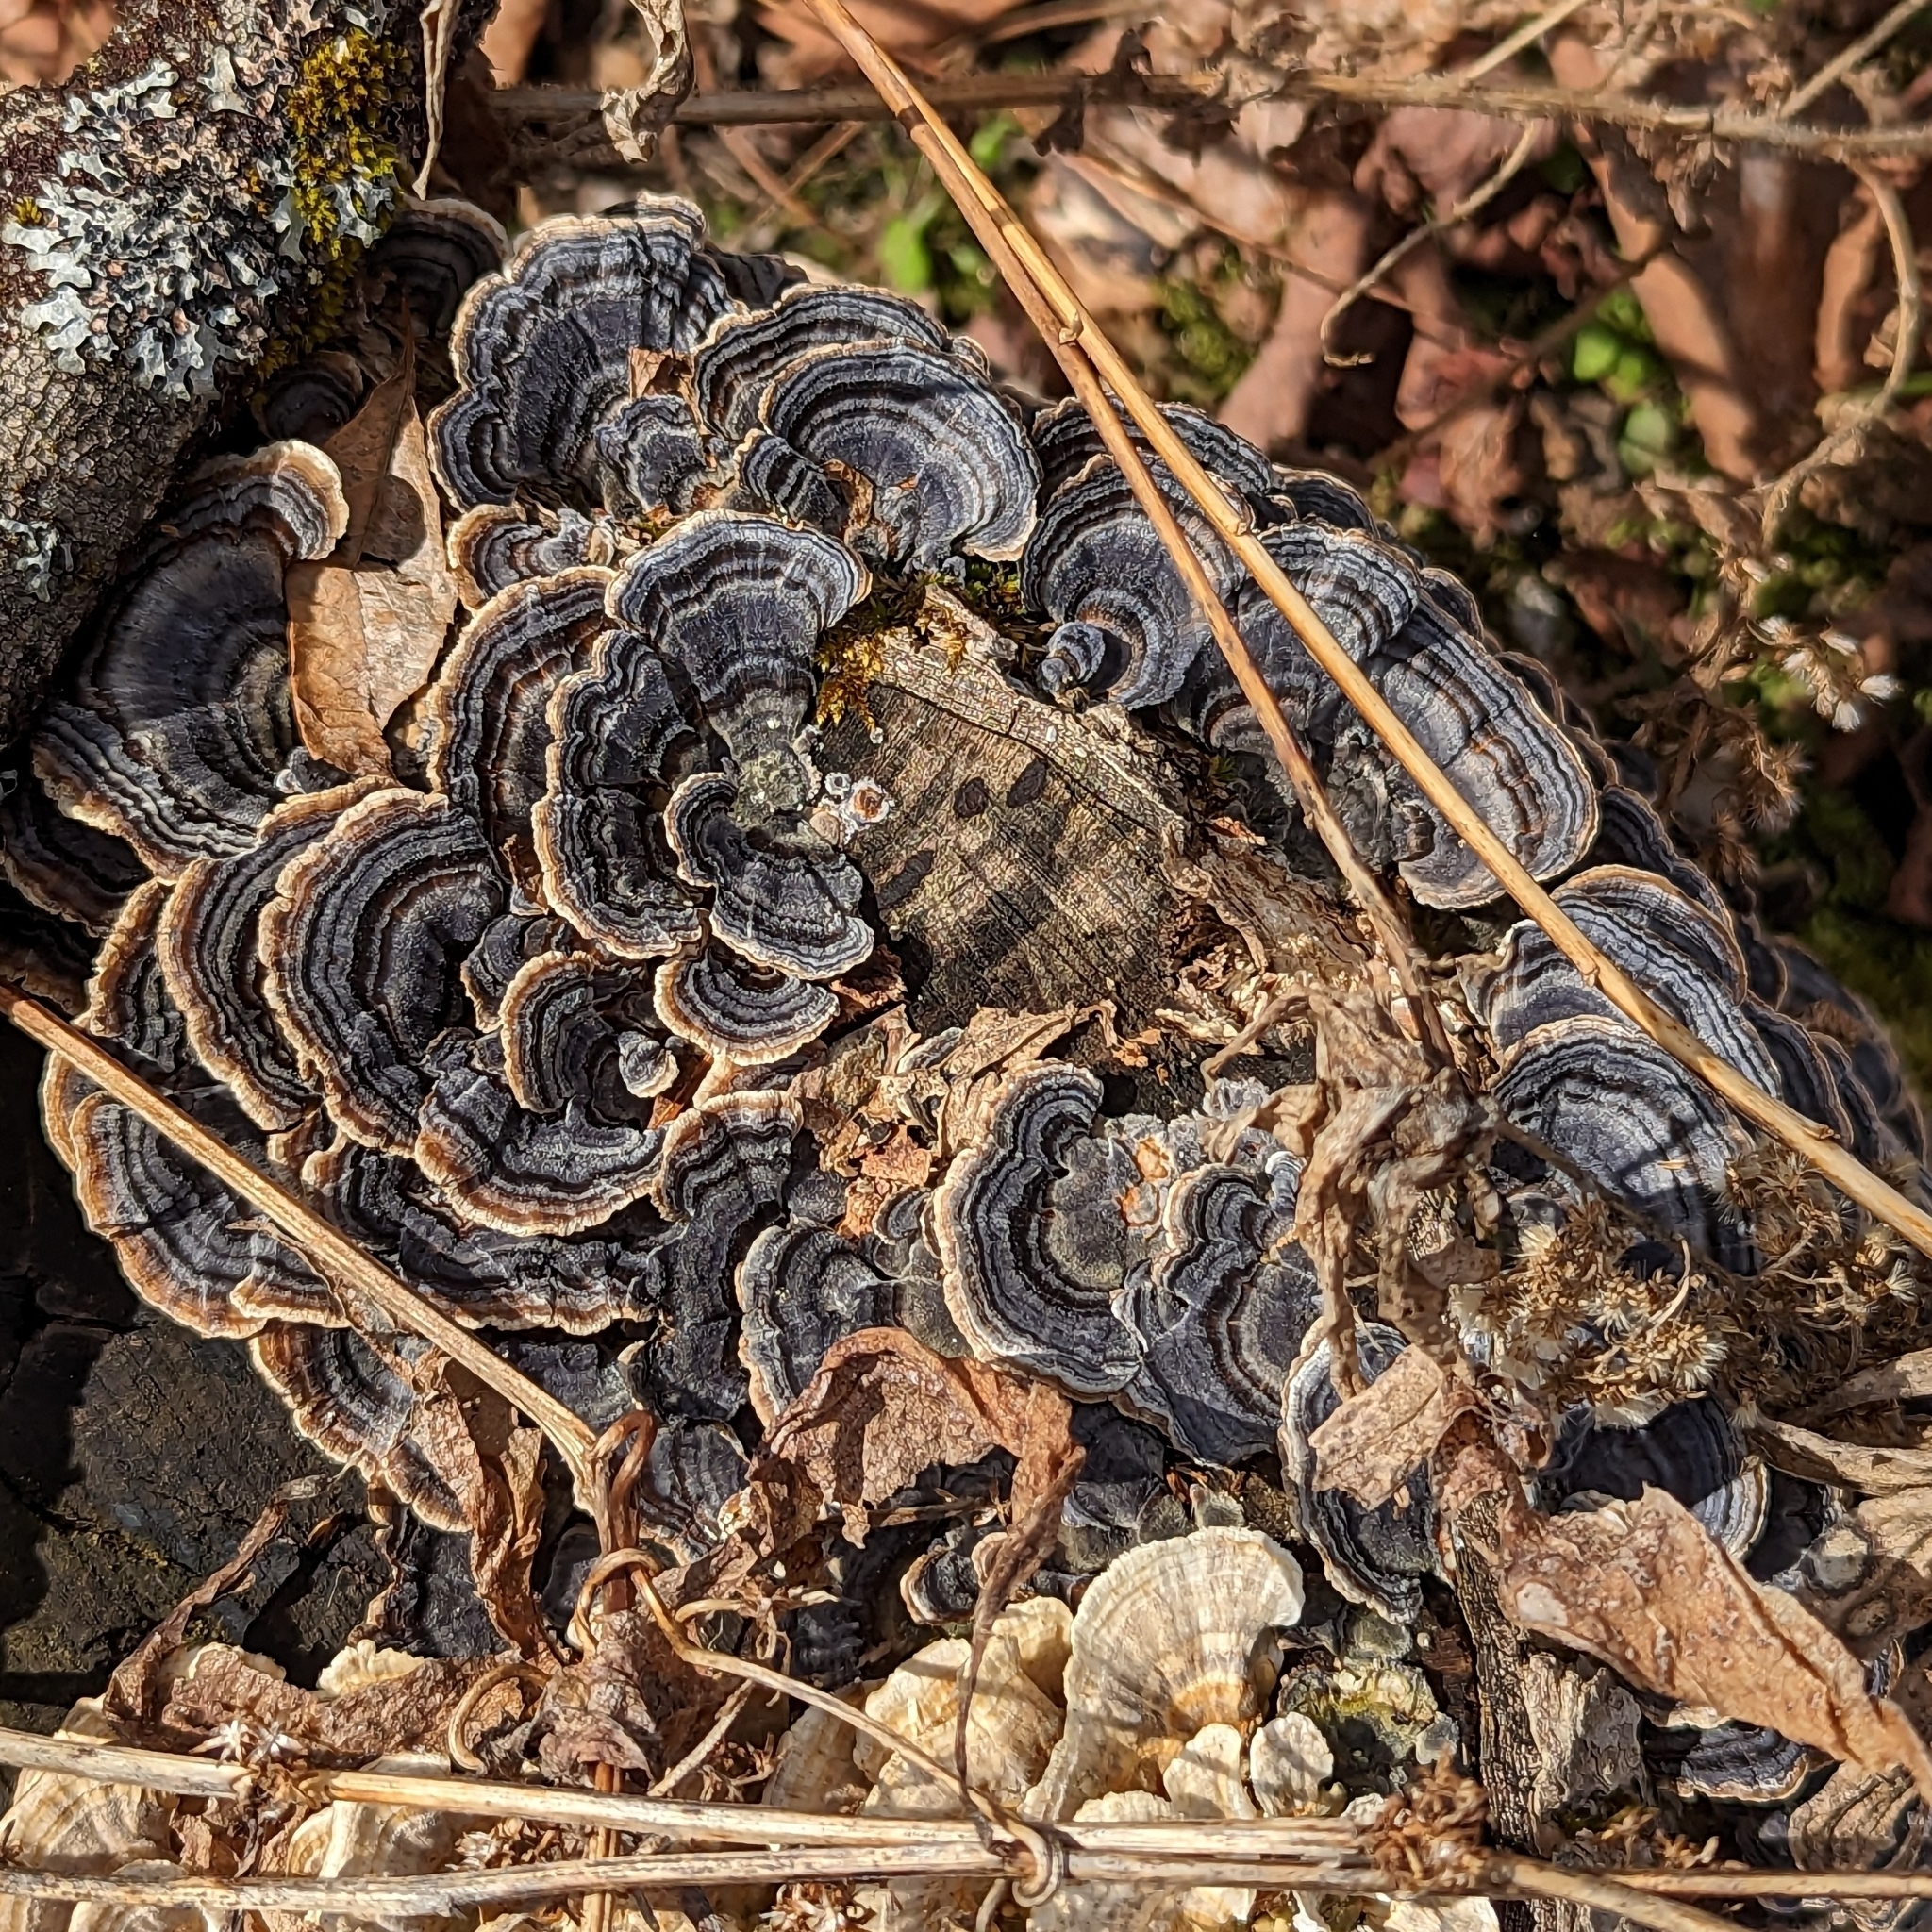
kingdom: Fungi
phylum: Basidiomycota
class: Agaricomycetes
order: Polyporales
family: Polyporaceae
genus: Trametes
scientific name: Trametes versicolor
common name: Turkeytail
